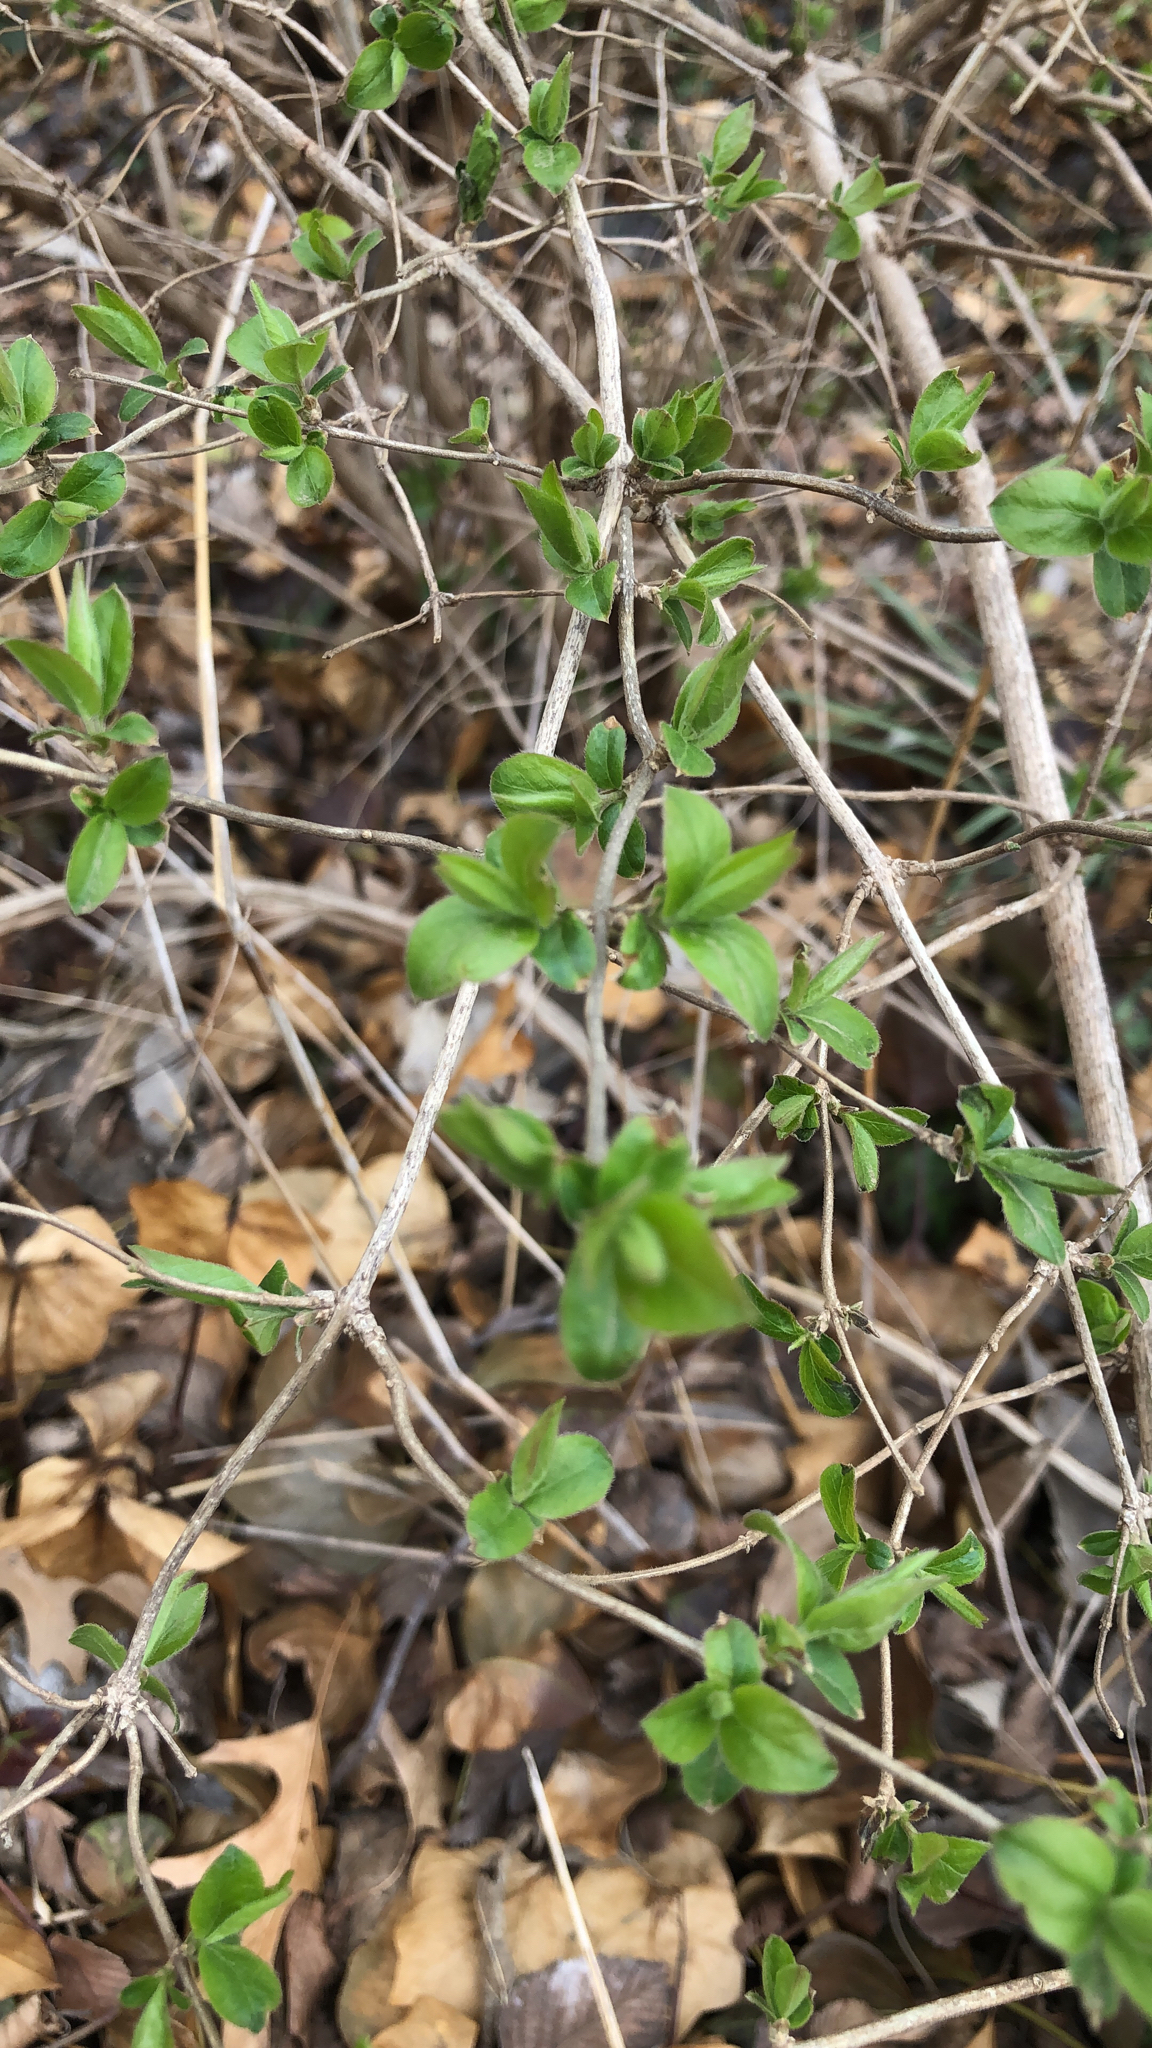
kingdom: Plantae
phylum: Tracheophyta
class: Magnoliopsida
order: Dipsacales
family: Caprifoliaceae
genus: Lonicera
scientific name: Lonicera maackii
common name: Amur honeysuckle
